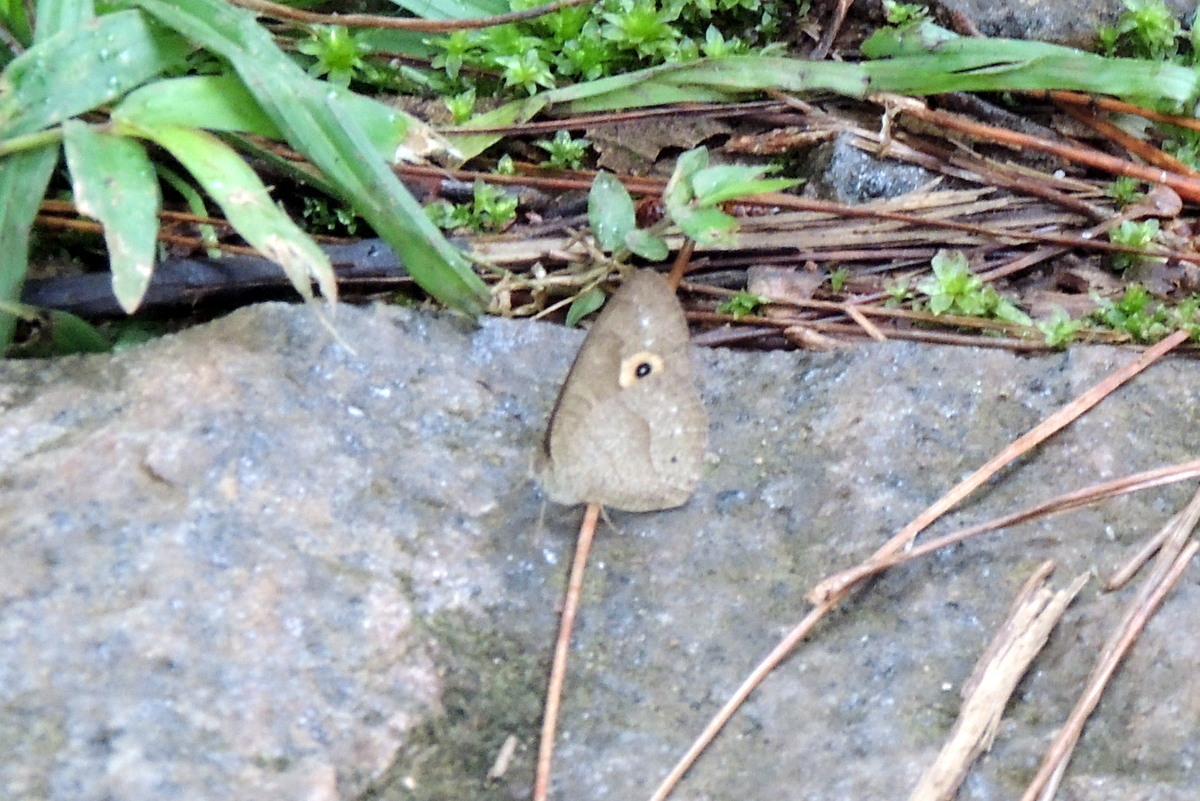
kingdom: Animalia
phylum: Arthropoda
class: Insecta
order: Lepidoptera
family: Nymphalidae
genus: Heteropsis
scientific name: Heteropsis andasibe
